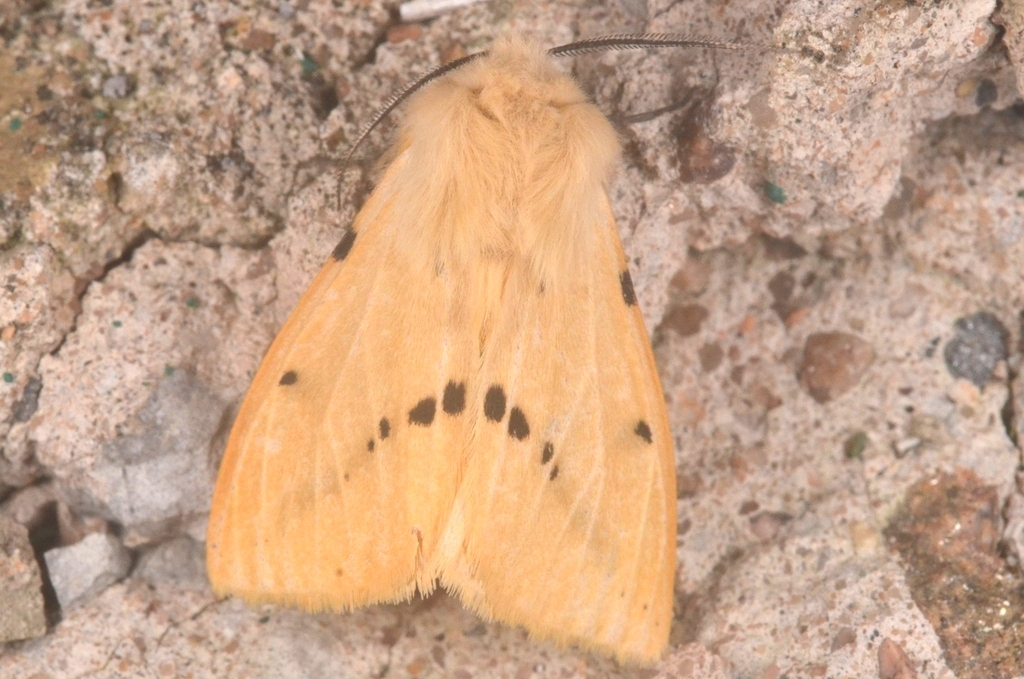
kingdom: Animalia
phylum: Arthropoda
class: Insecta
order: Lepidoptera
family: Erebidae
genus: Spilarctia
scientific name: Spilarctia lutea
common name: Buff ermine
